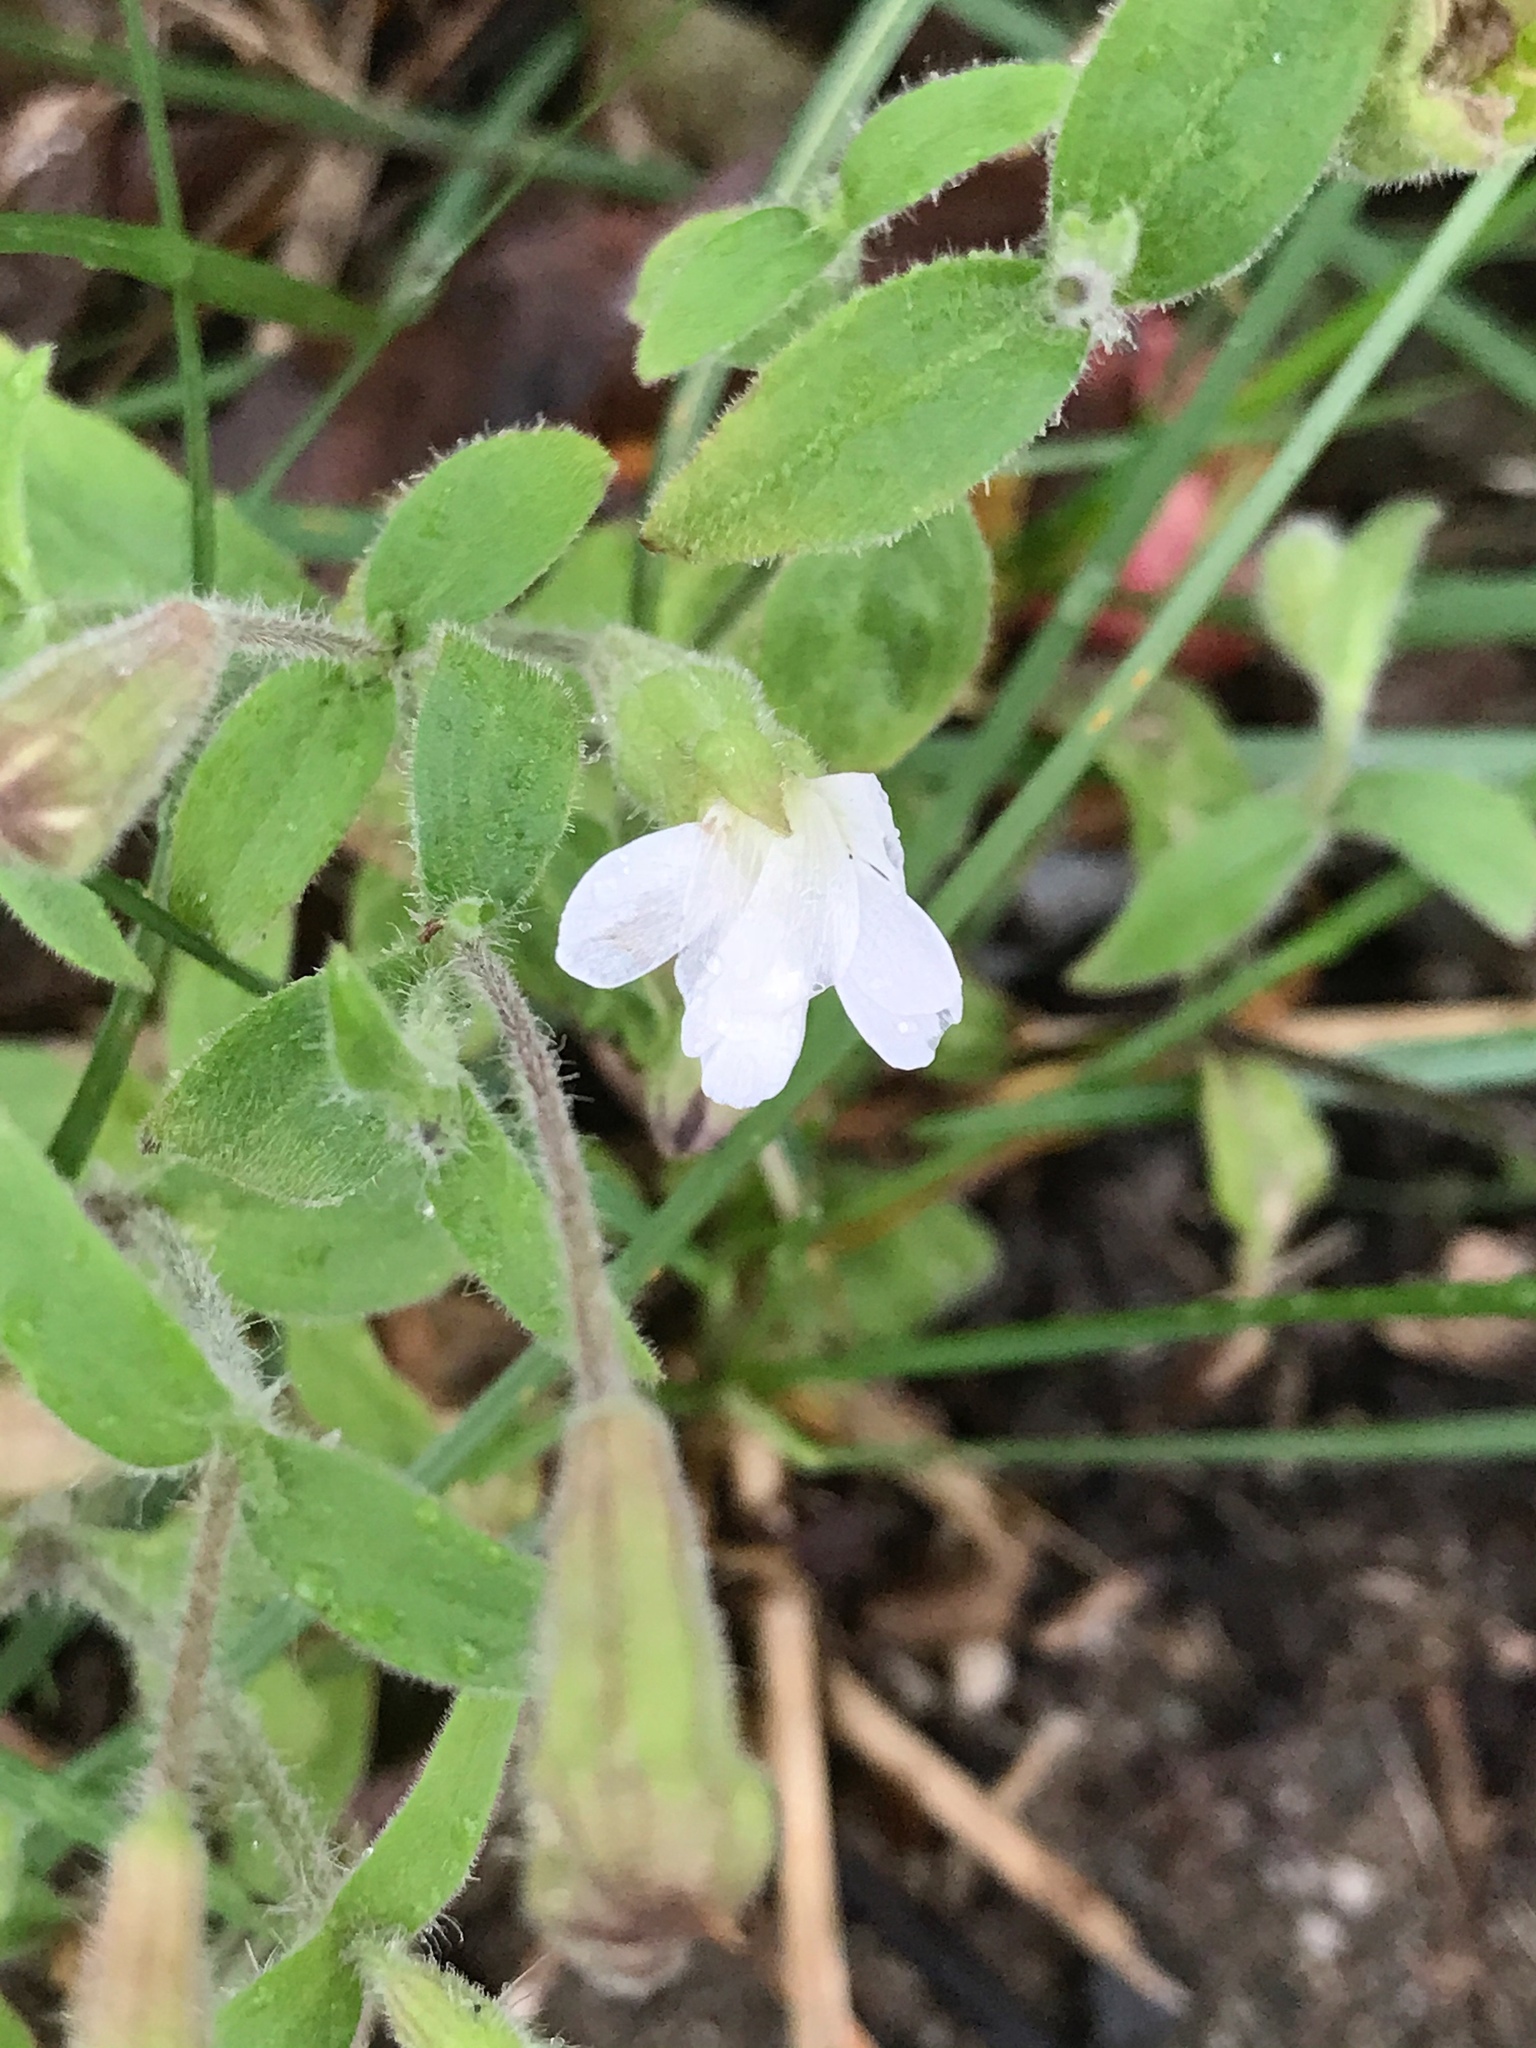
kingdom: Plantae
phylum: Tracheophyta
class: Magnoliopsida
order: Caryophyllales
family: Caryophyllaceae
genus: Silene
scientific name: Silene latifolia
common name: White campion
